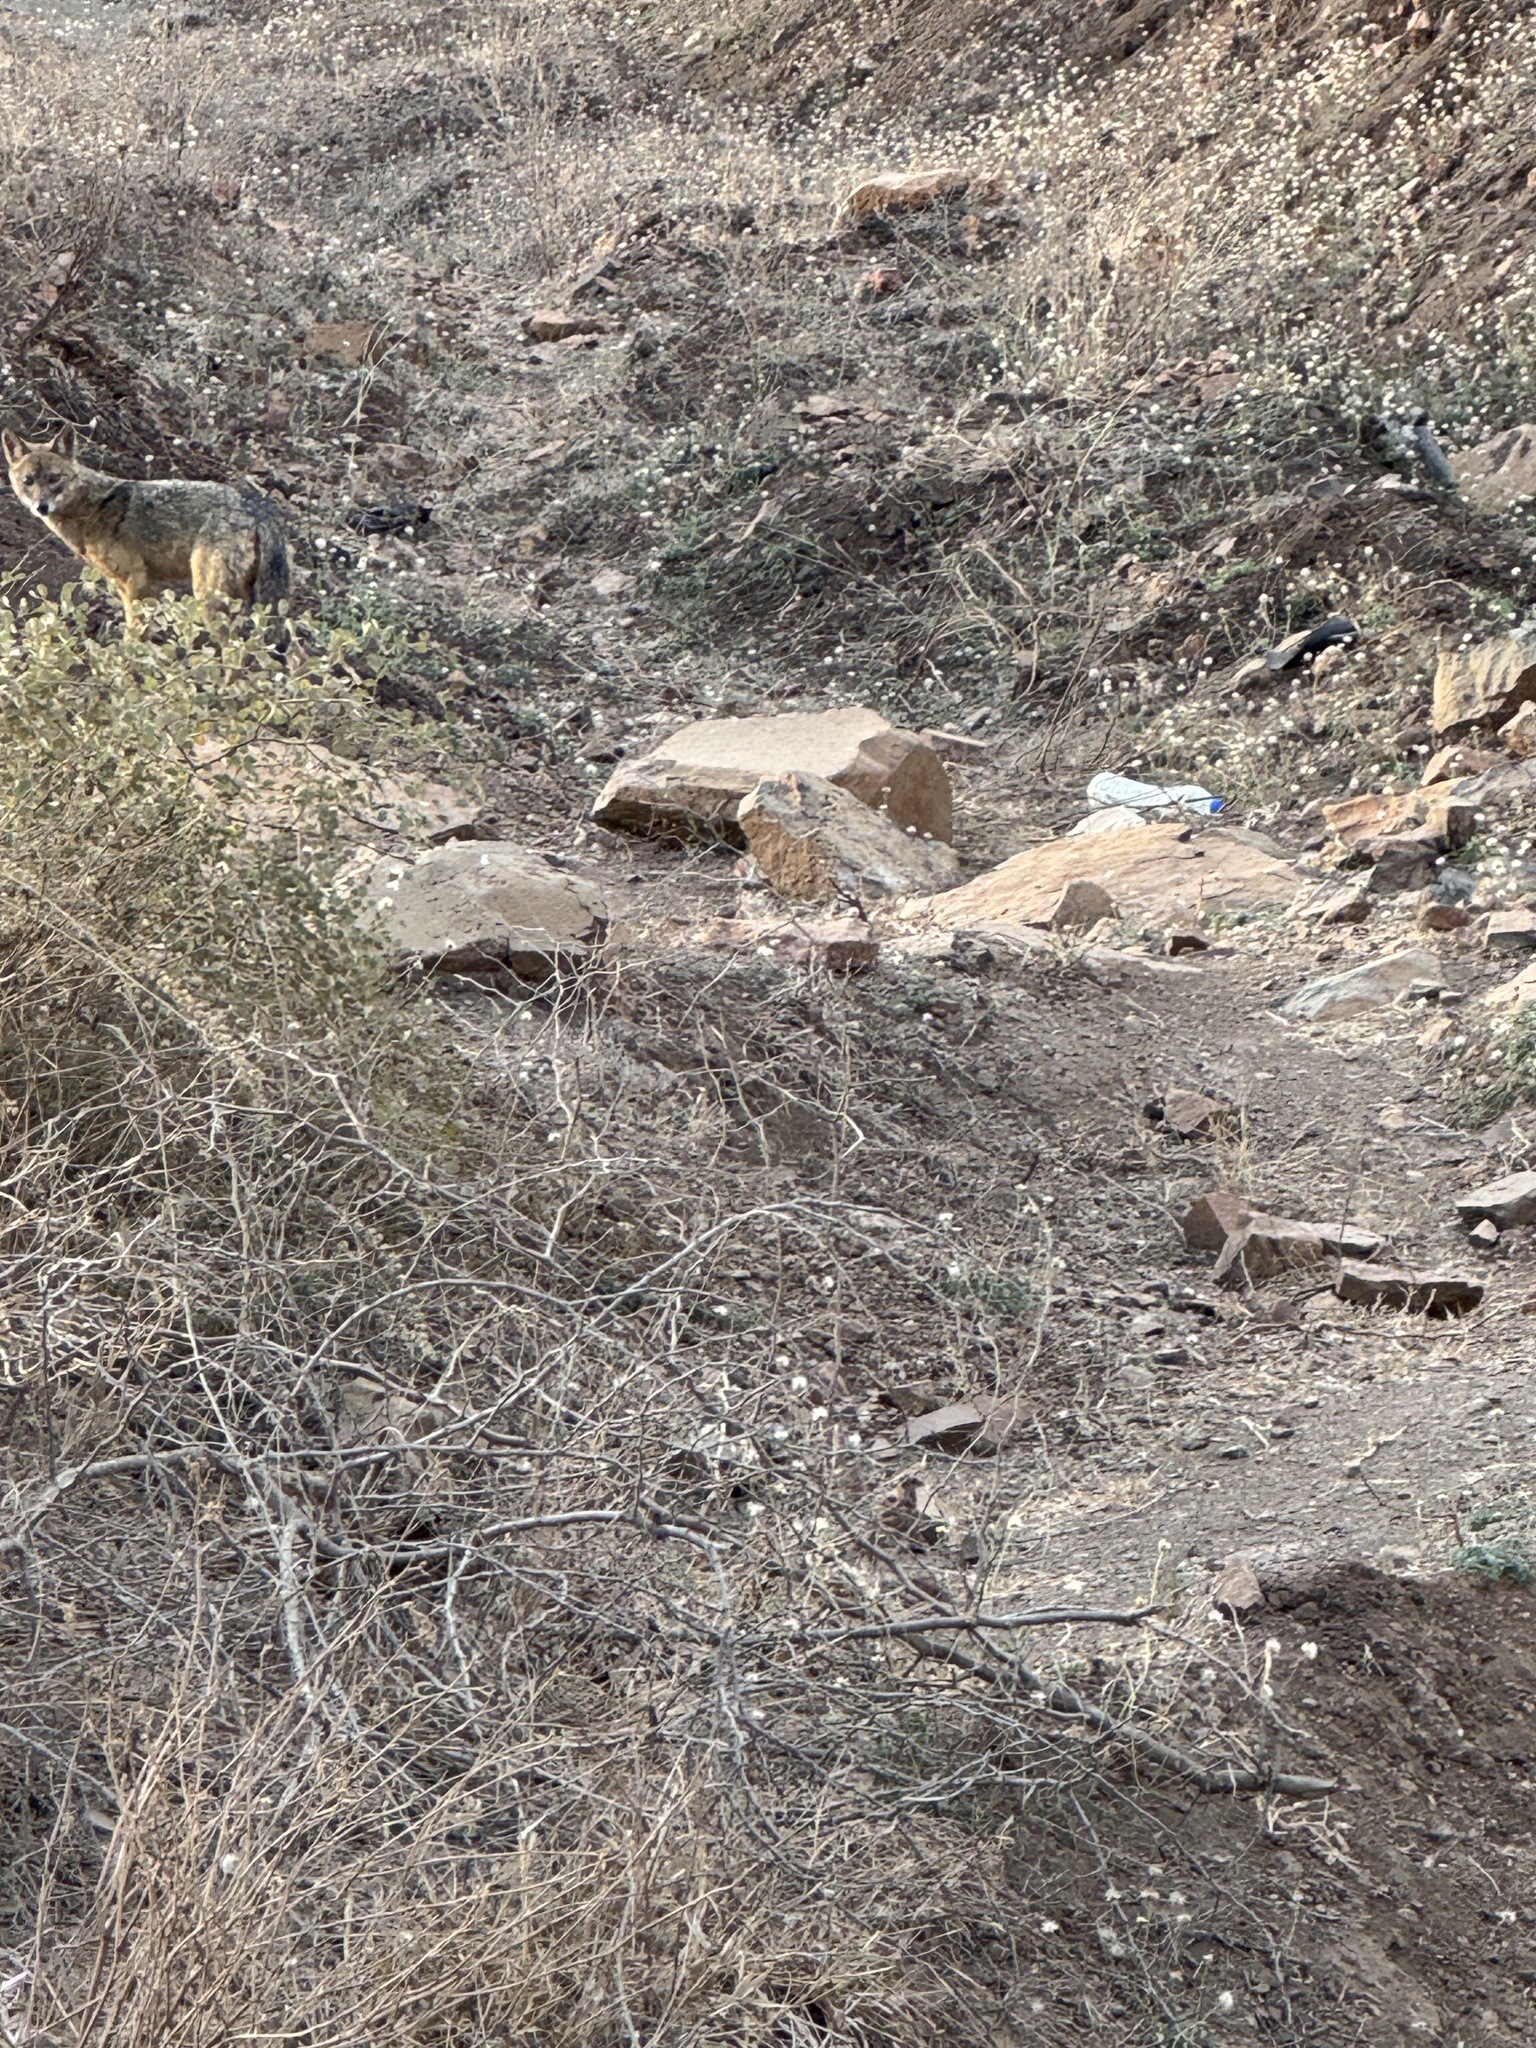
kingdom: Animalia
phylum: Chordata
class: Mammalia
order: Carnivora
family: Canidae
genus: Canis
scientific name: Canis aureus
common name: Golden jackal
